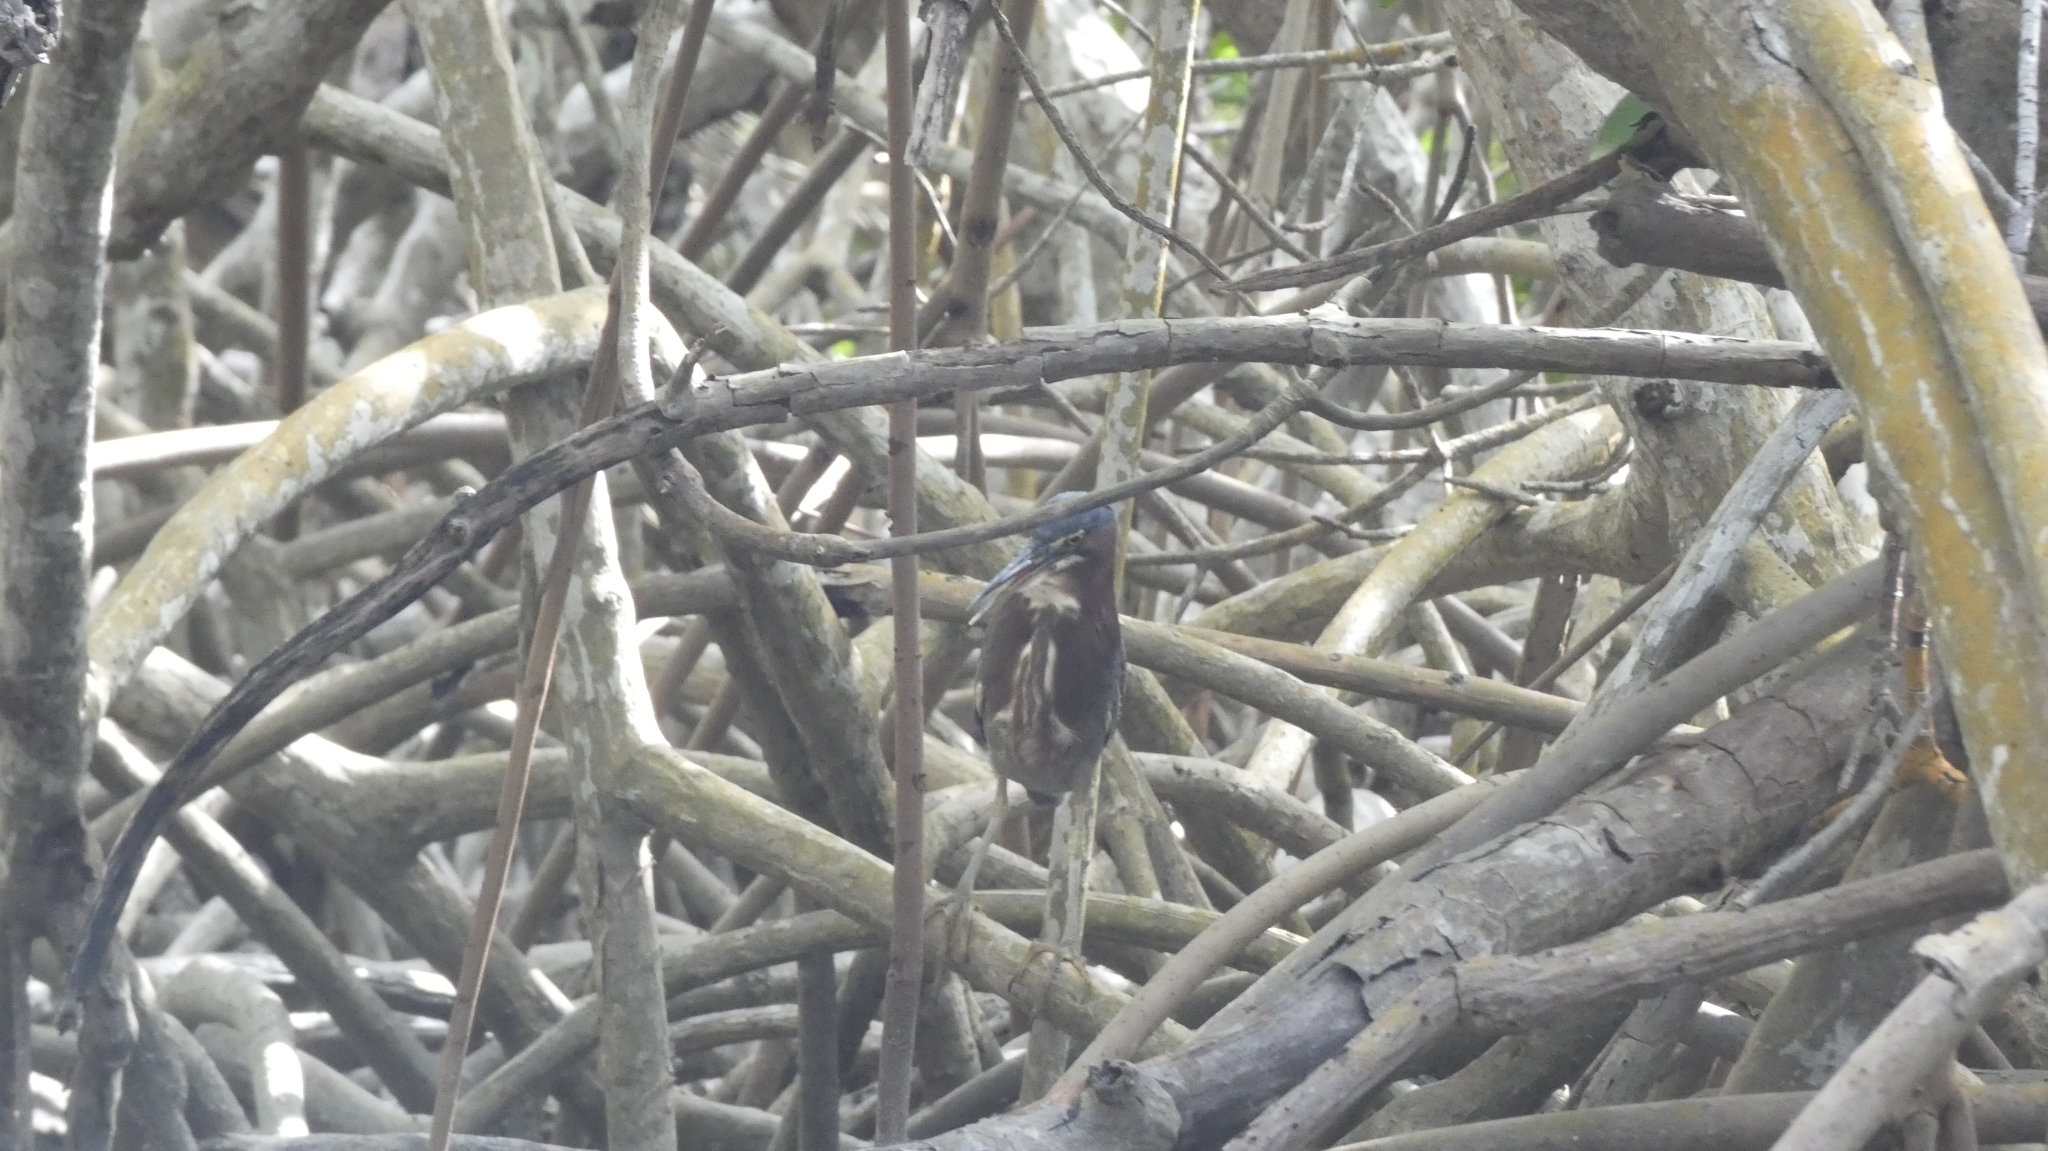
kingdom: Animalia
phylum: Chordata
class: Aves
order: Pelecaniformes
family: Ardeidae
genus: Butorides
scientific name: Butorides virescens
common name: Green heron
